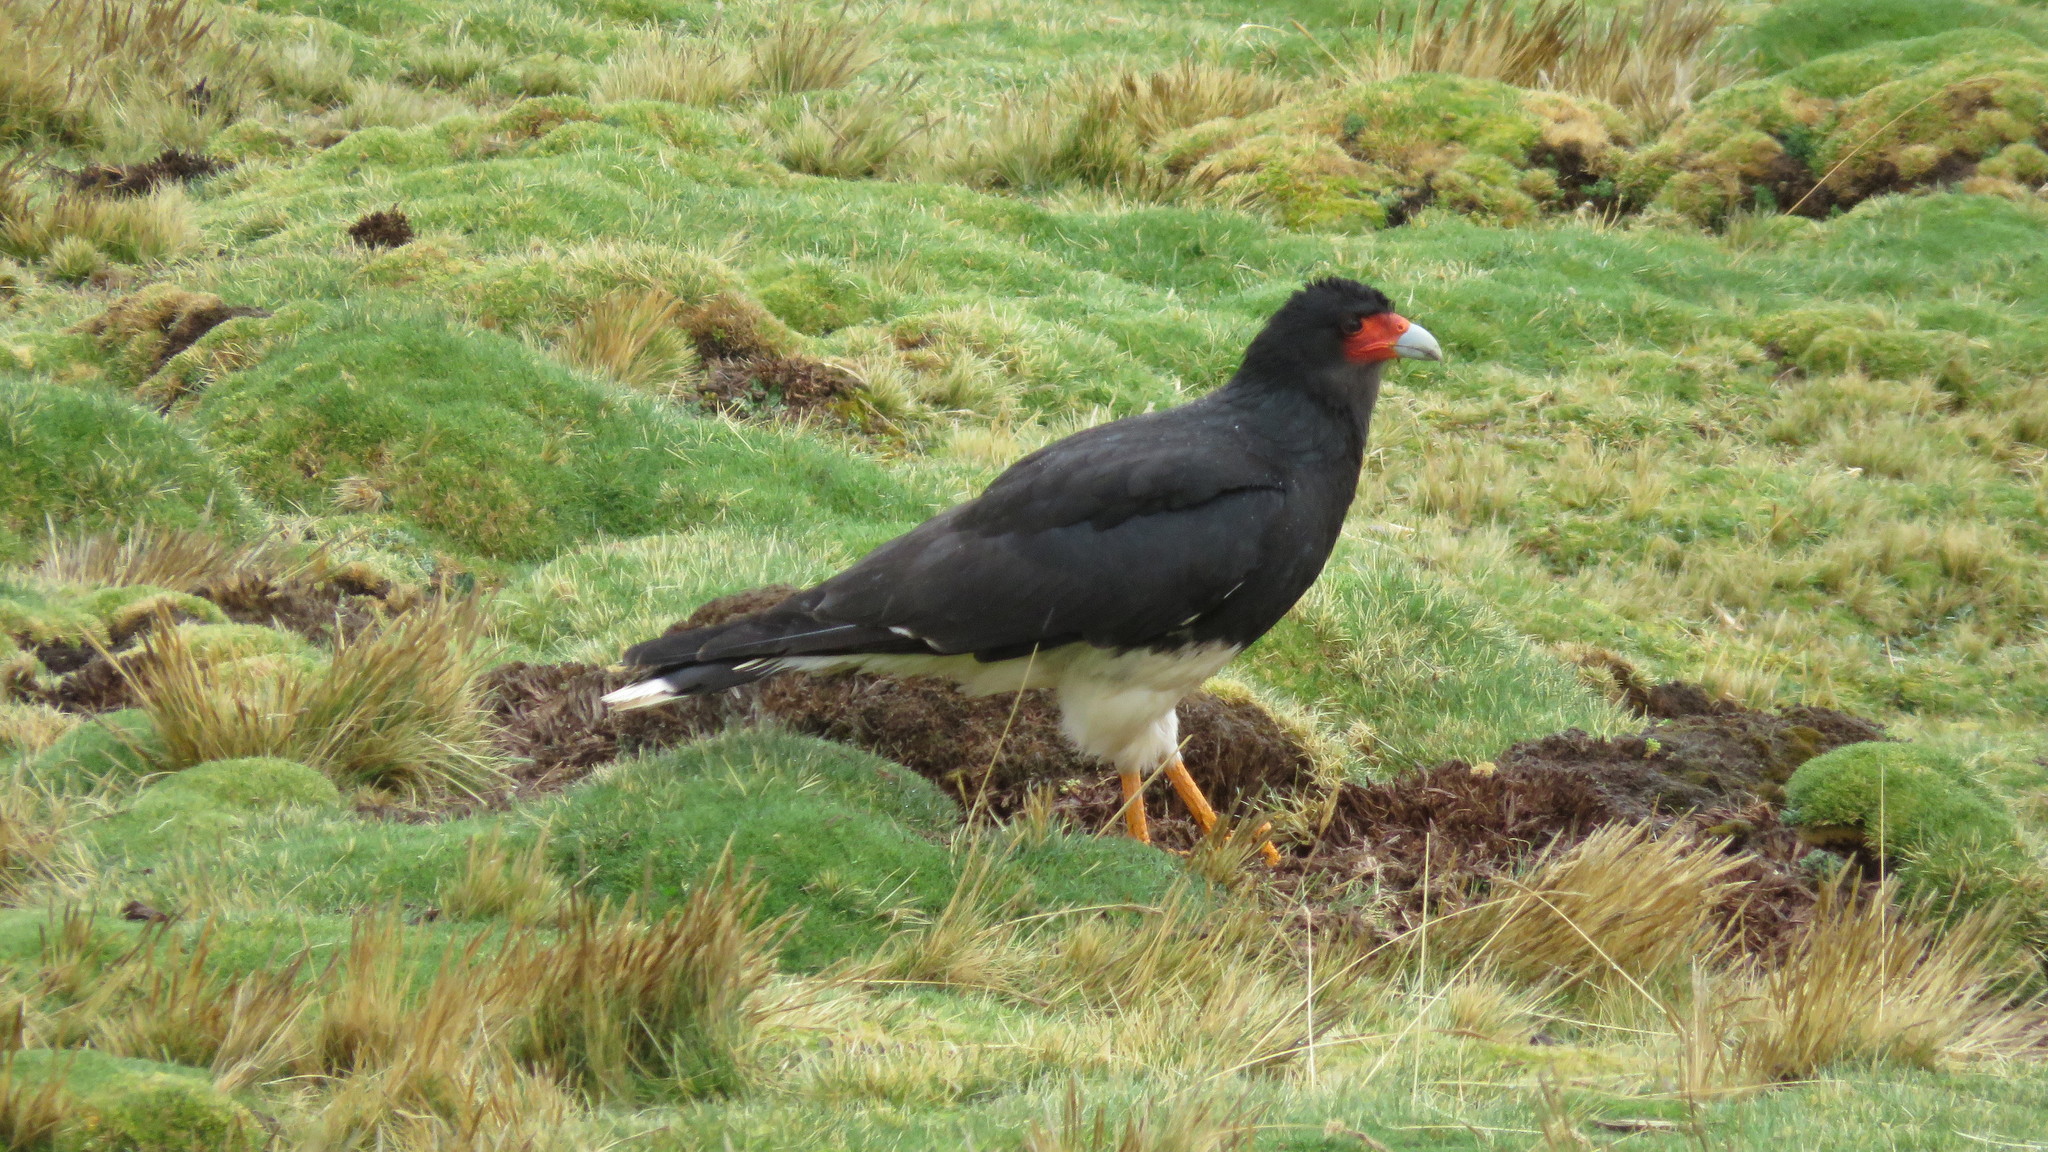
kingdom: Animalia
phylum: Chordata
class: Aves
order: Falconiformes
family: Falconidae
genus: Daptrius
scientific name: Daptrius
